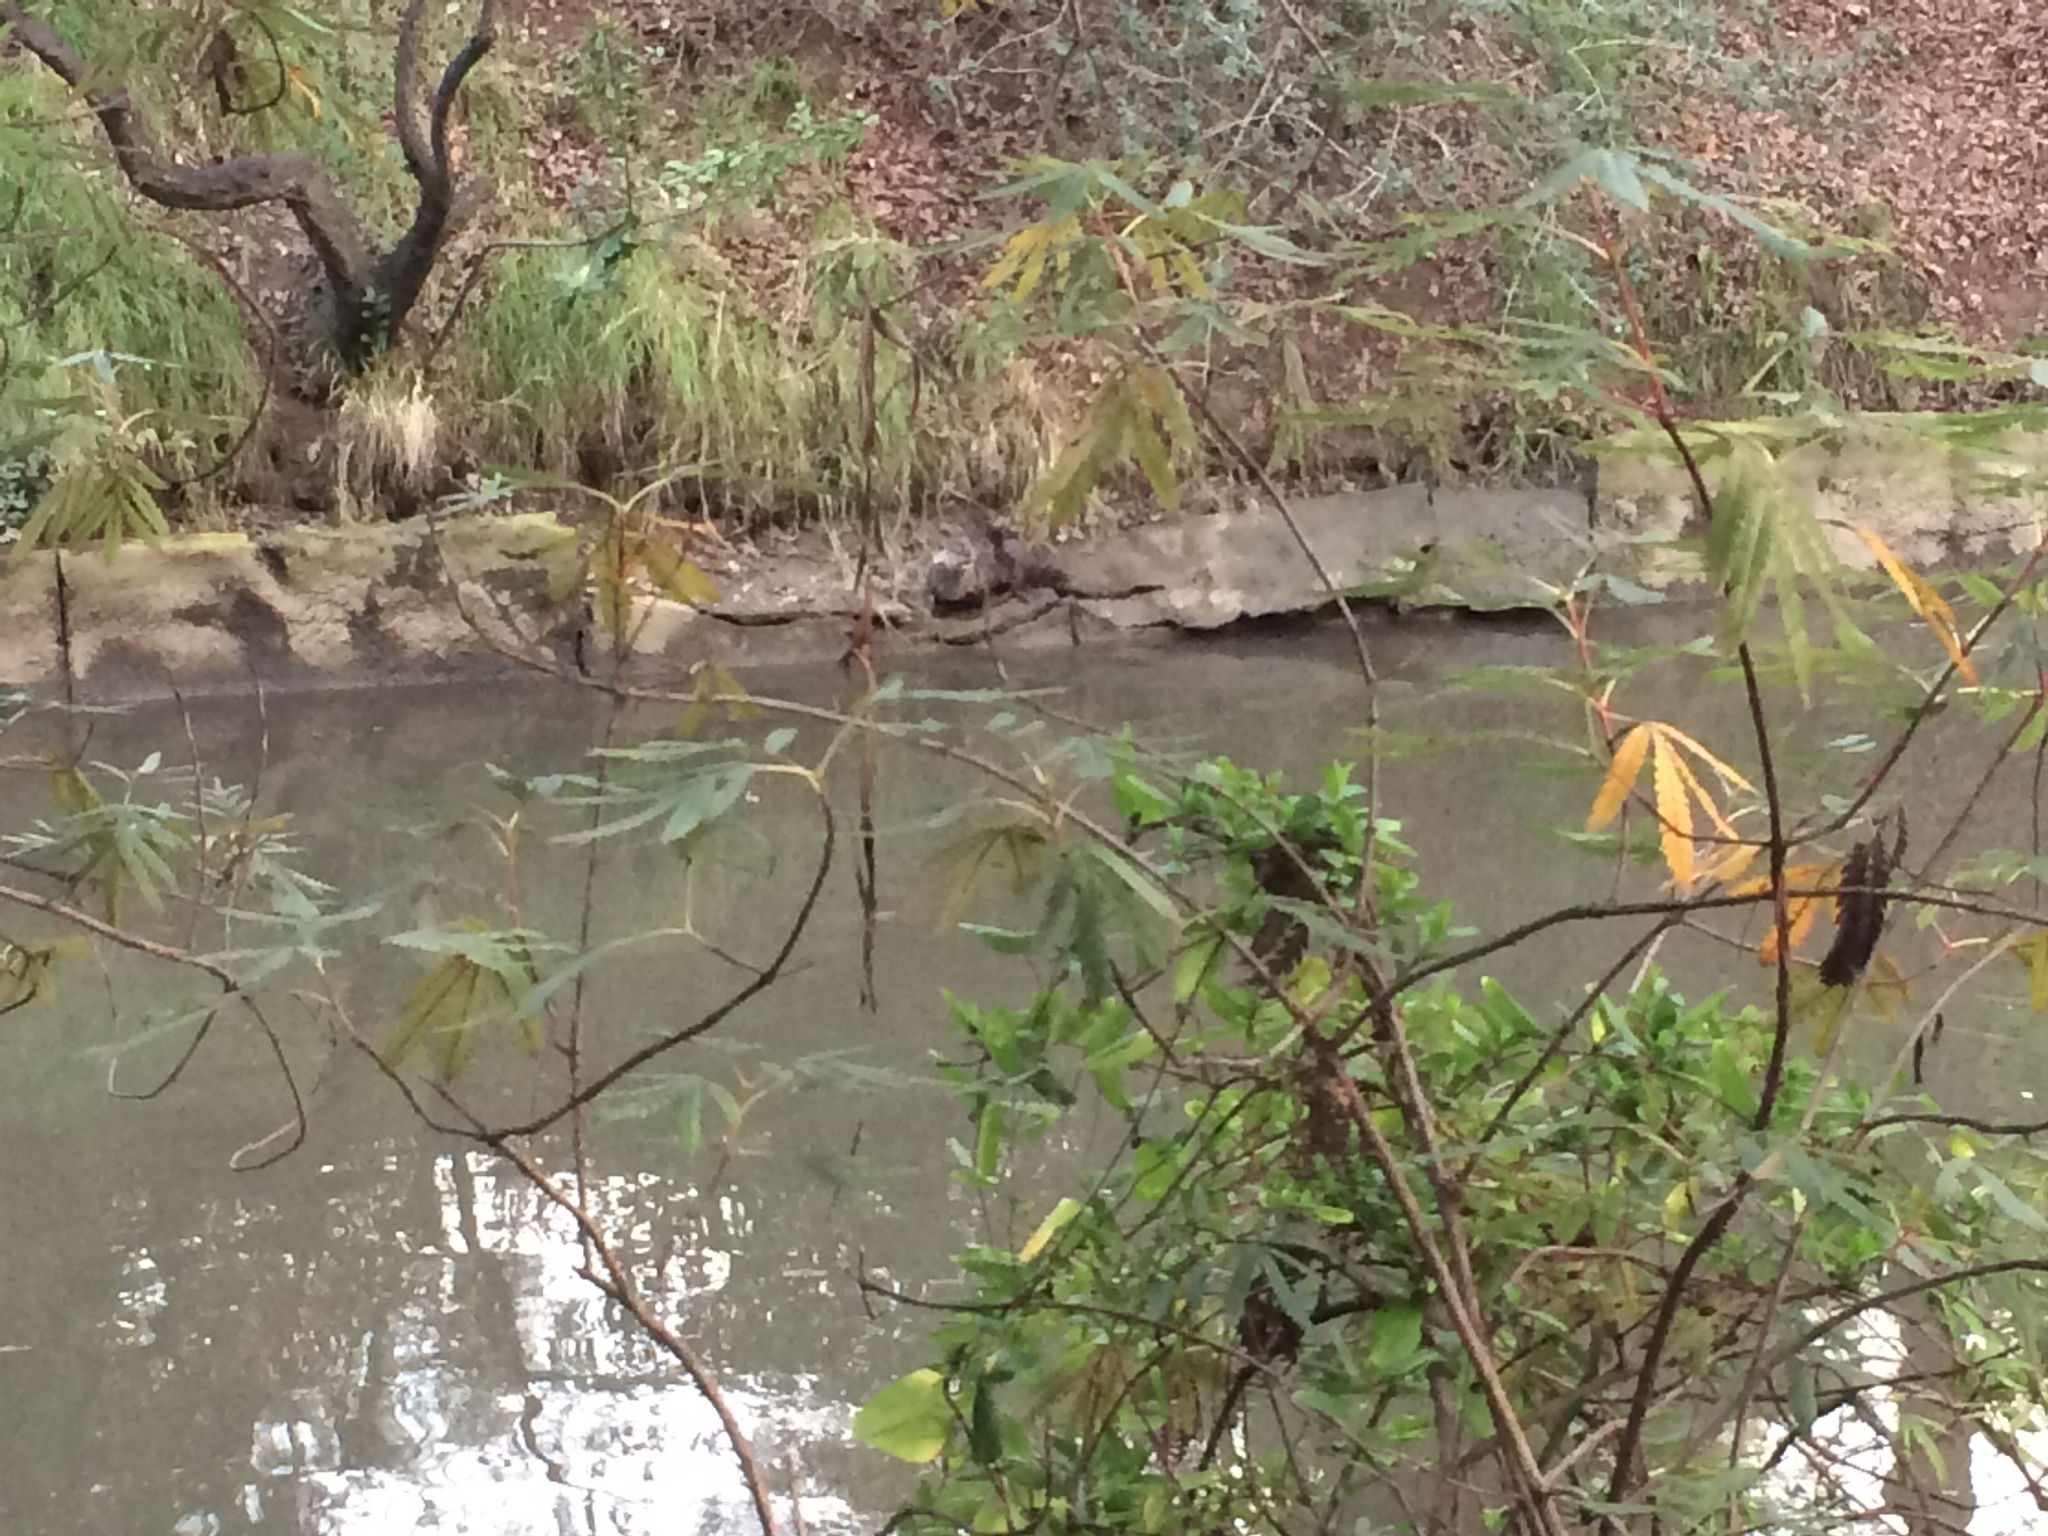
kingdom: Animalia
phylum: Chordata
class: Mammalia
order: Carnivora
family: Mustelidae
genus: Lontra
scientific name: Lontra canadensis
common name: North american river otter
